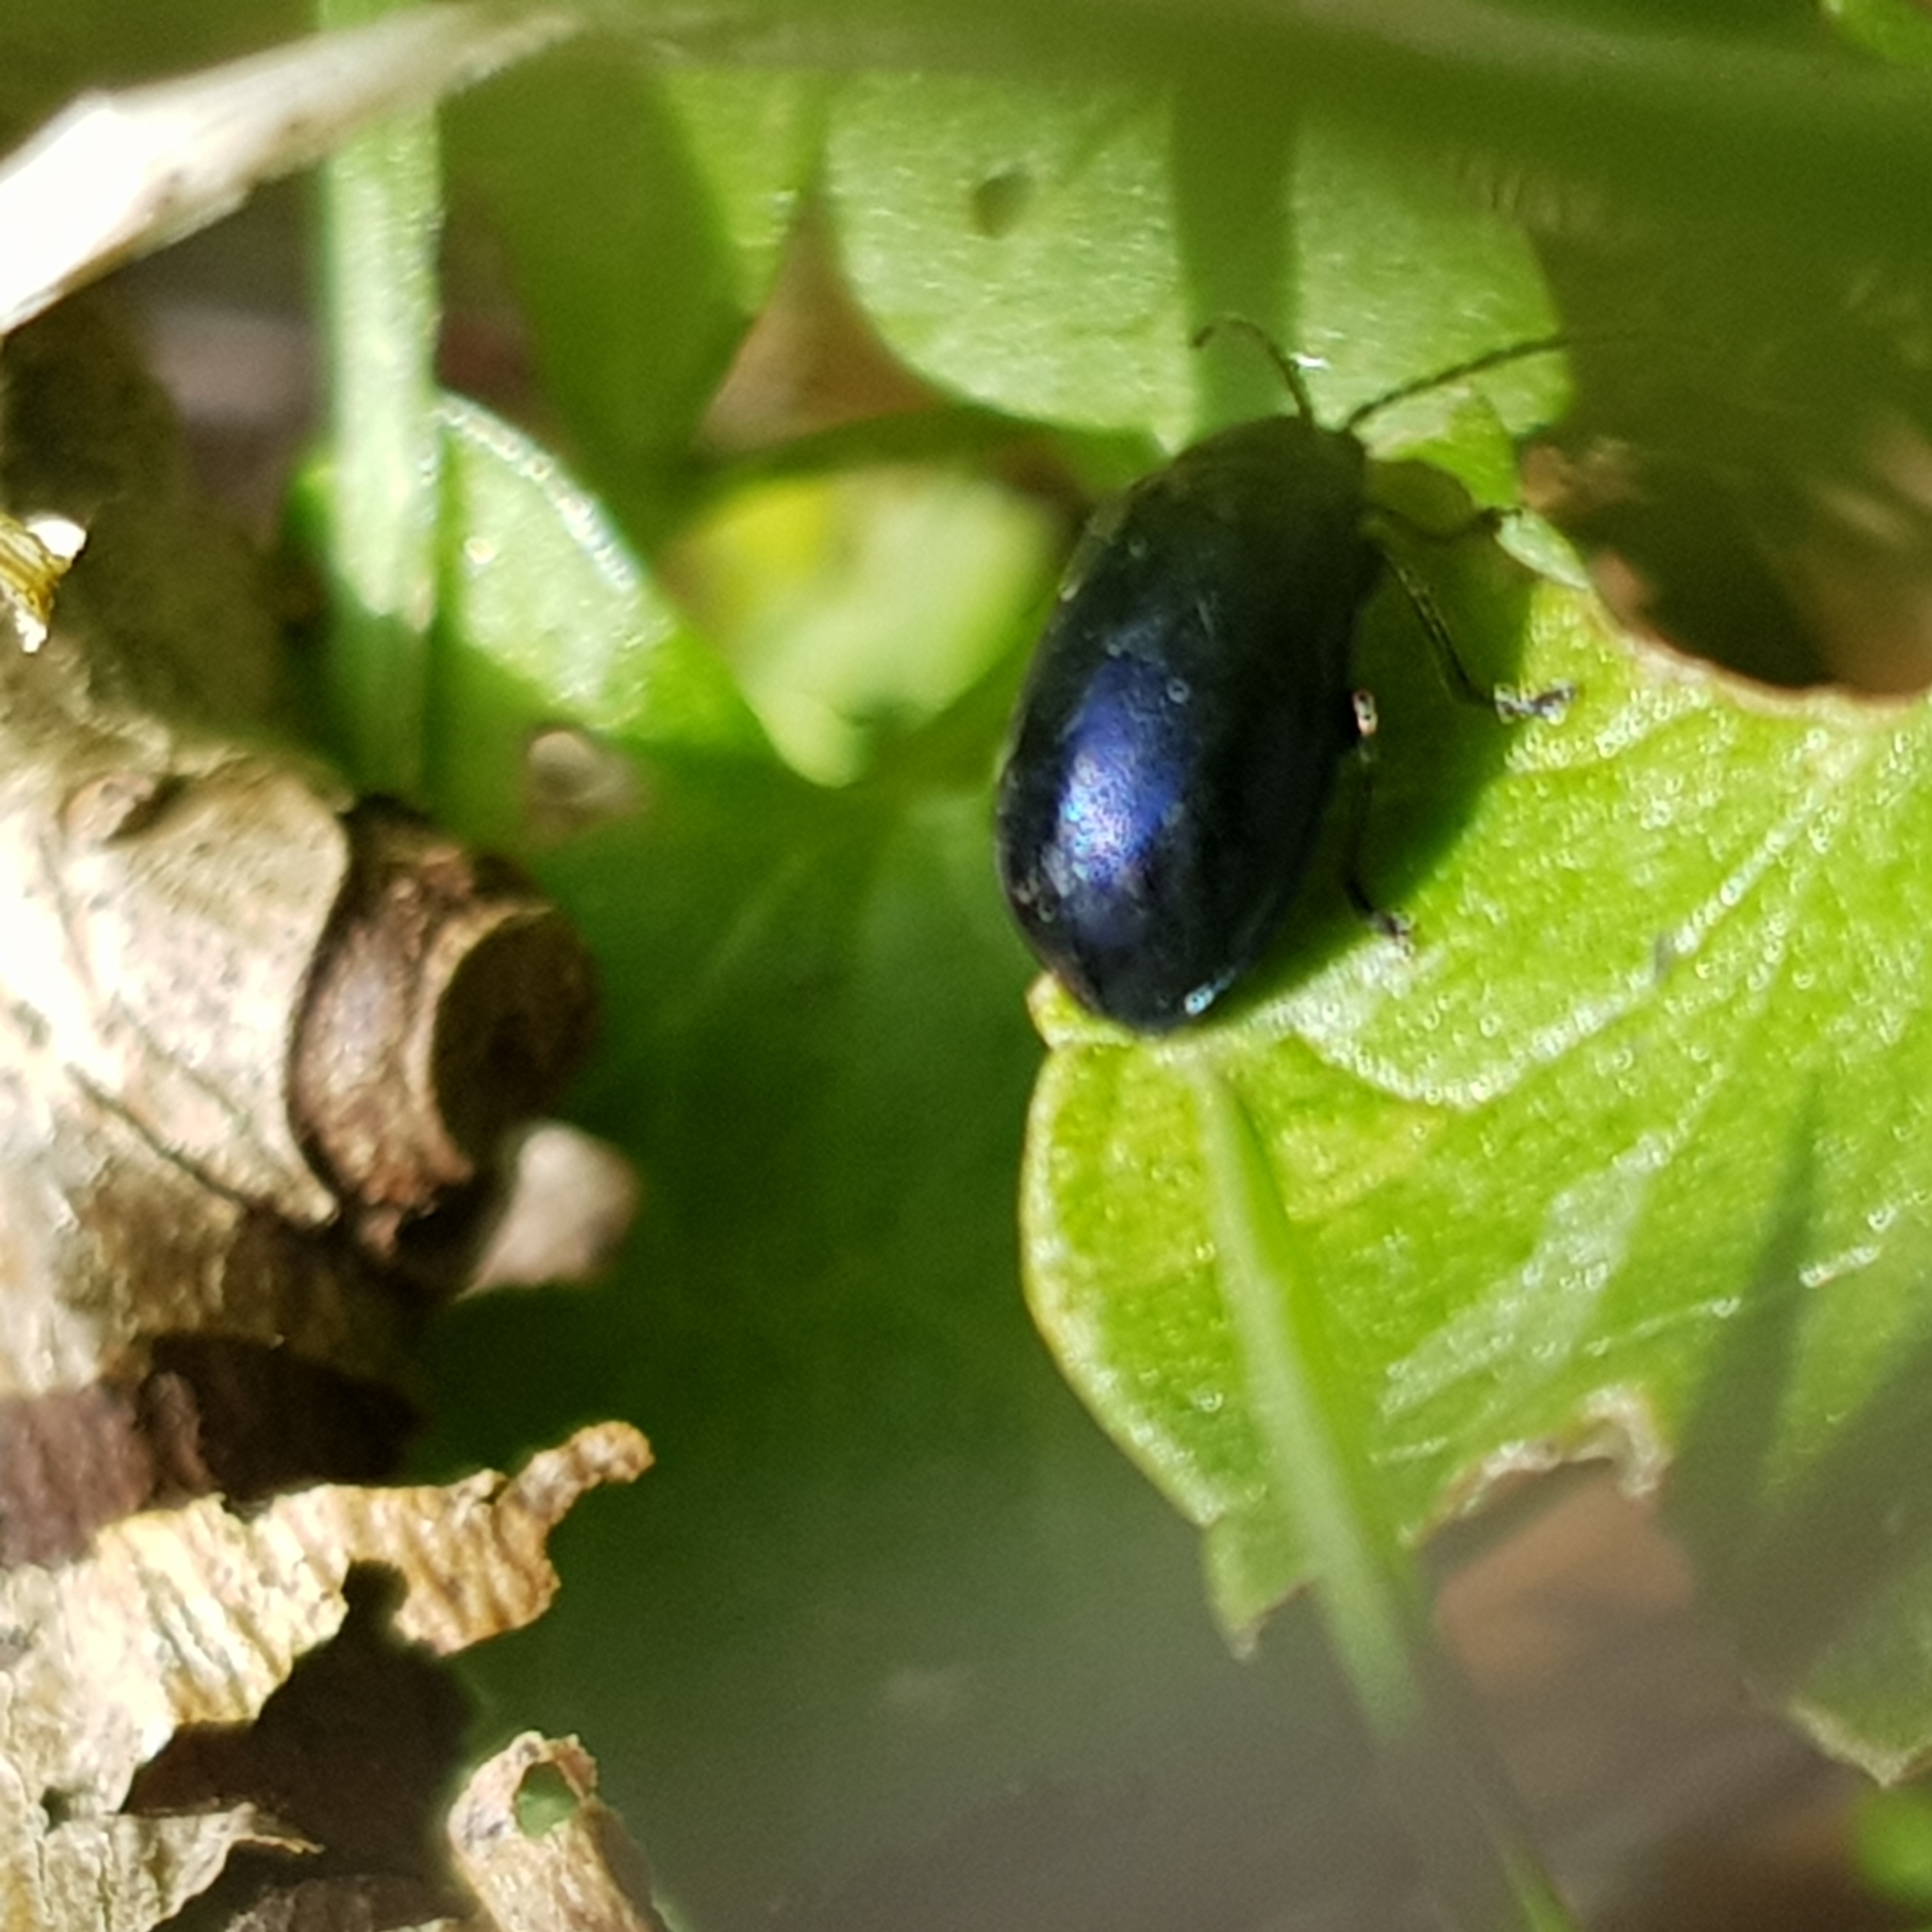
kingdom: Animalia
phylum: Arthropoda
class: Insecta
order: Coleoptera
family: Chrysomelidae
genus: Agelastica
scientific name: Agelastica alni
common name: Alder leaf beetle
